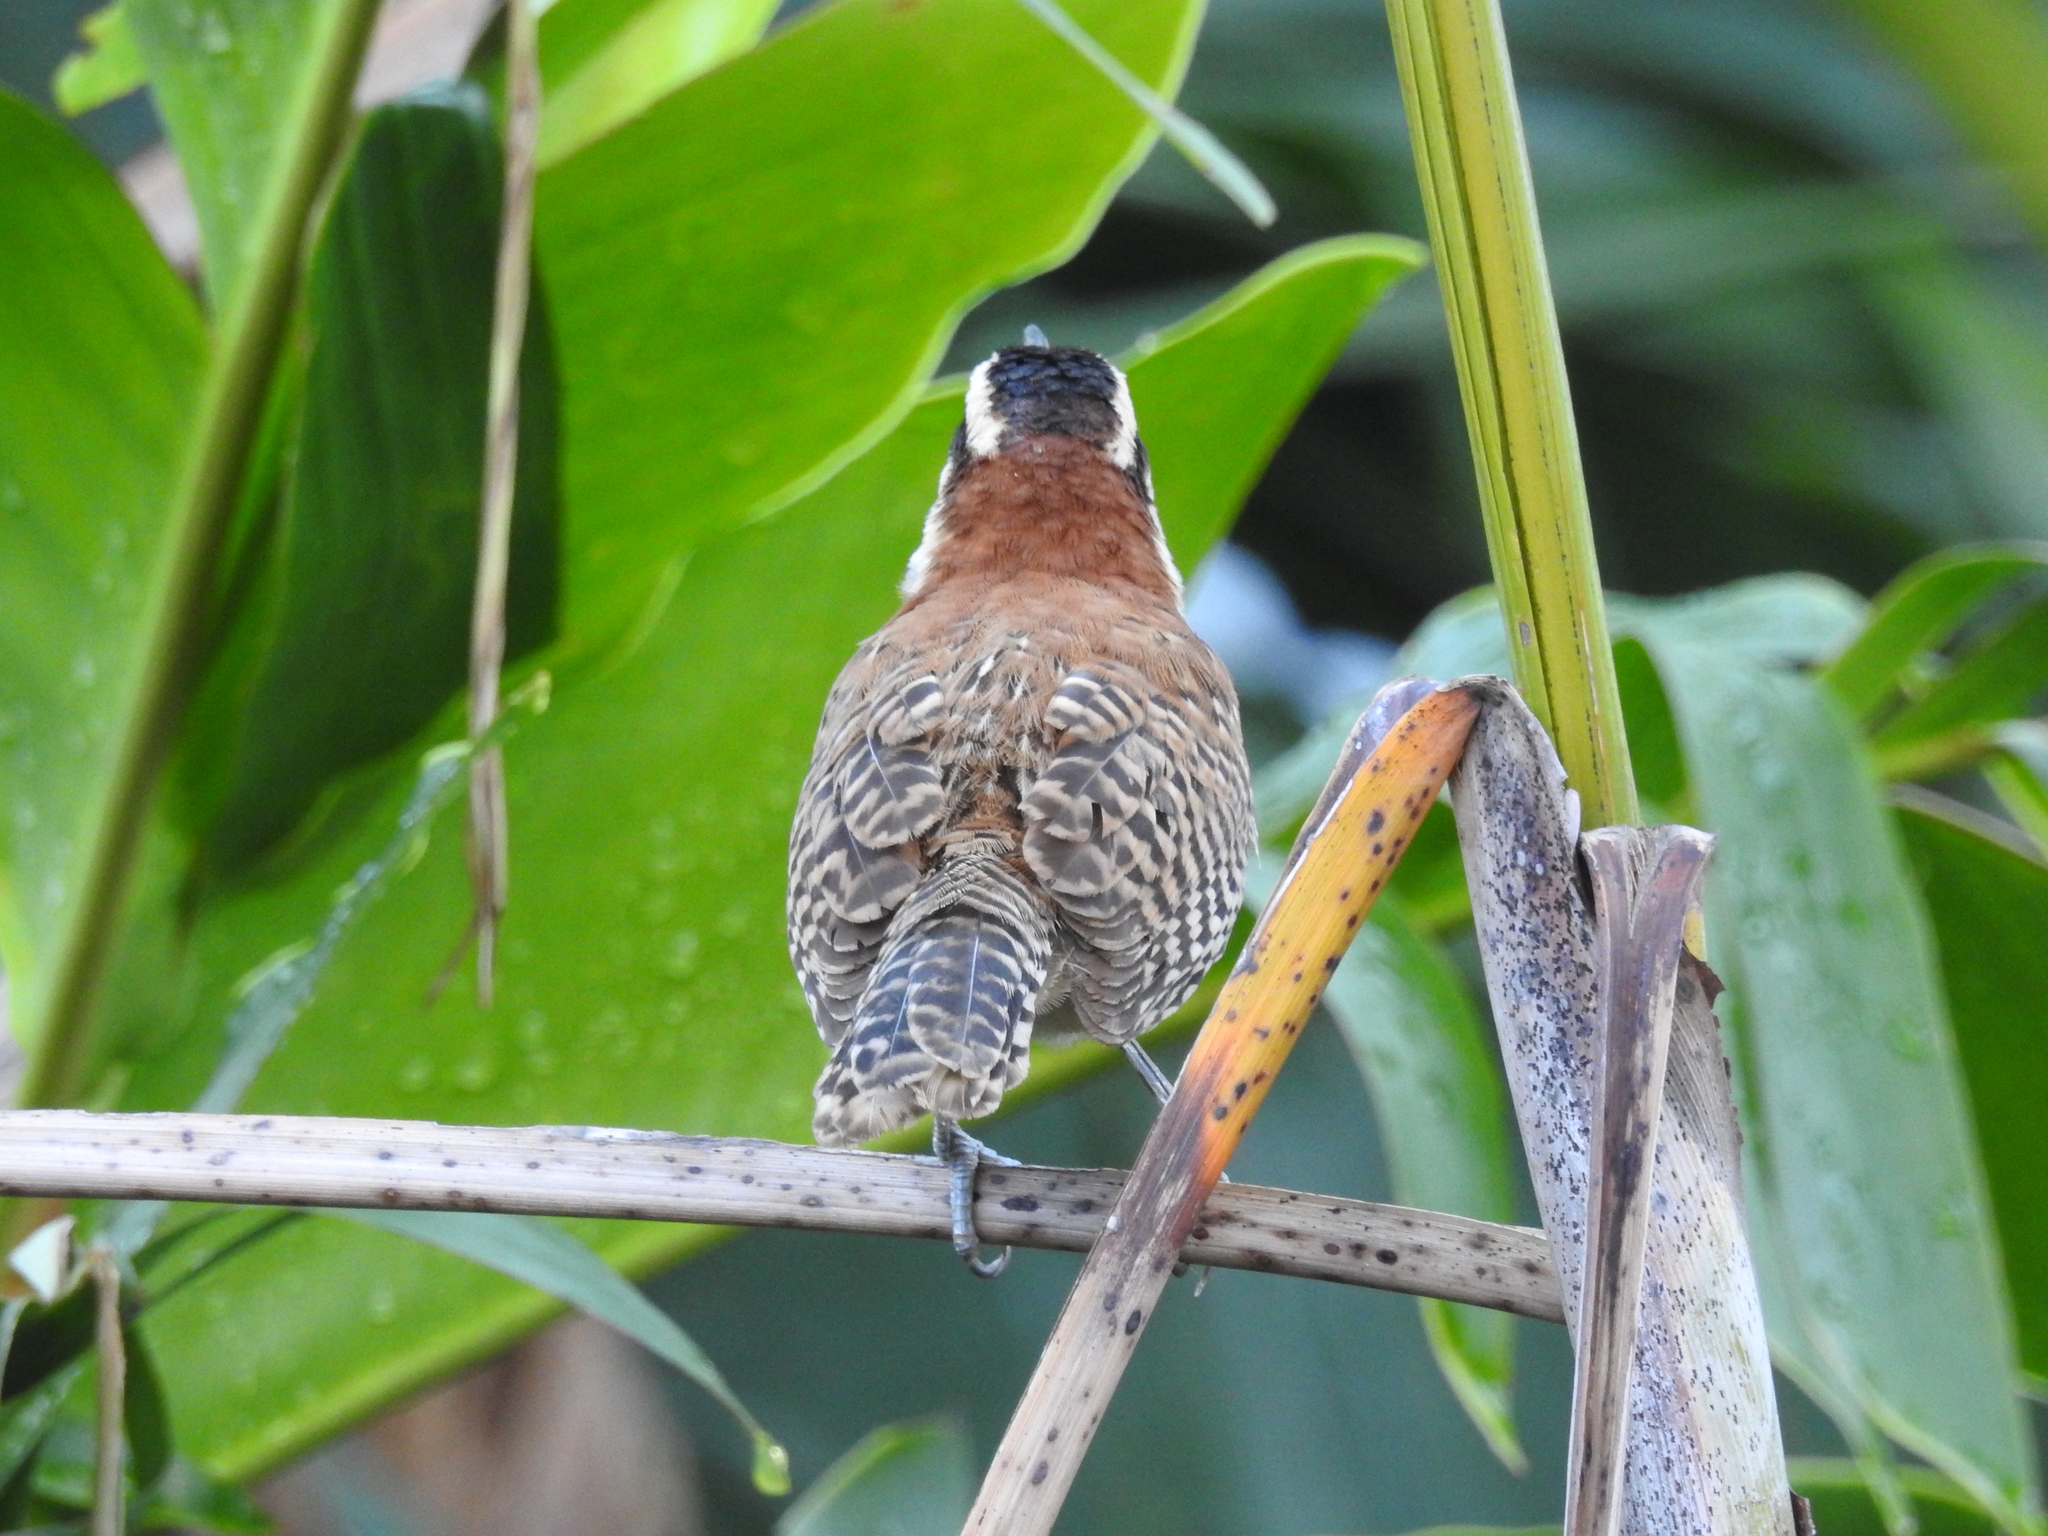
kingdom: Animalia
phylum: Chordata
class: Aves
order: Passeriformes
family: Troglodytidae
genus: Campylorhynchus
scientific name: Campylorhynchus rufinucha
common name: Rufous-naped wren
